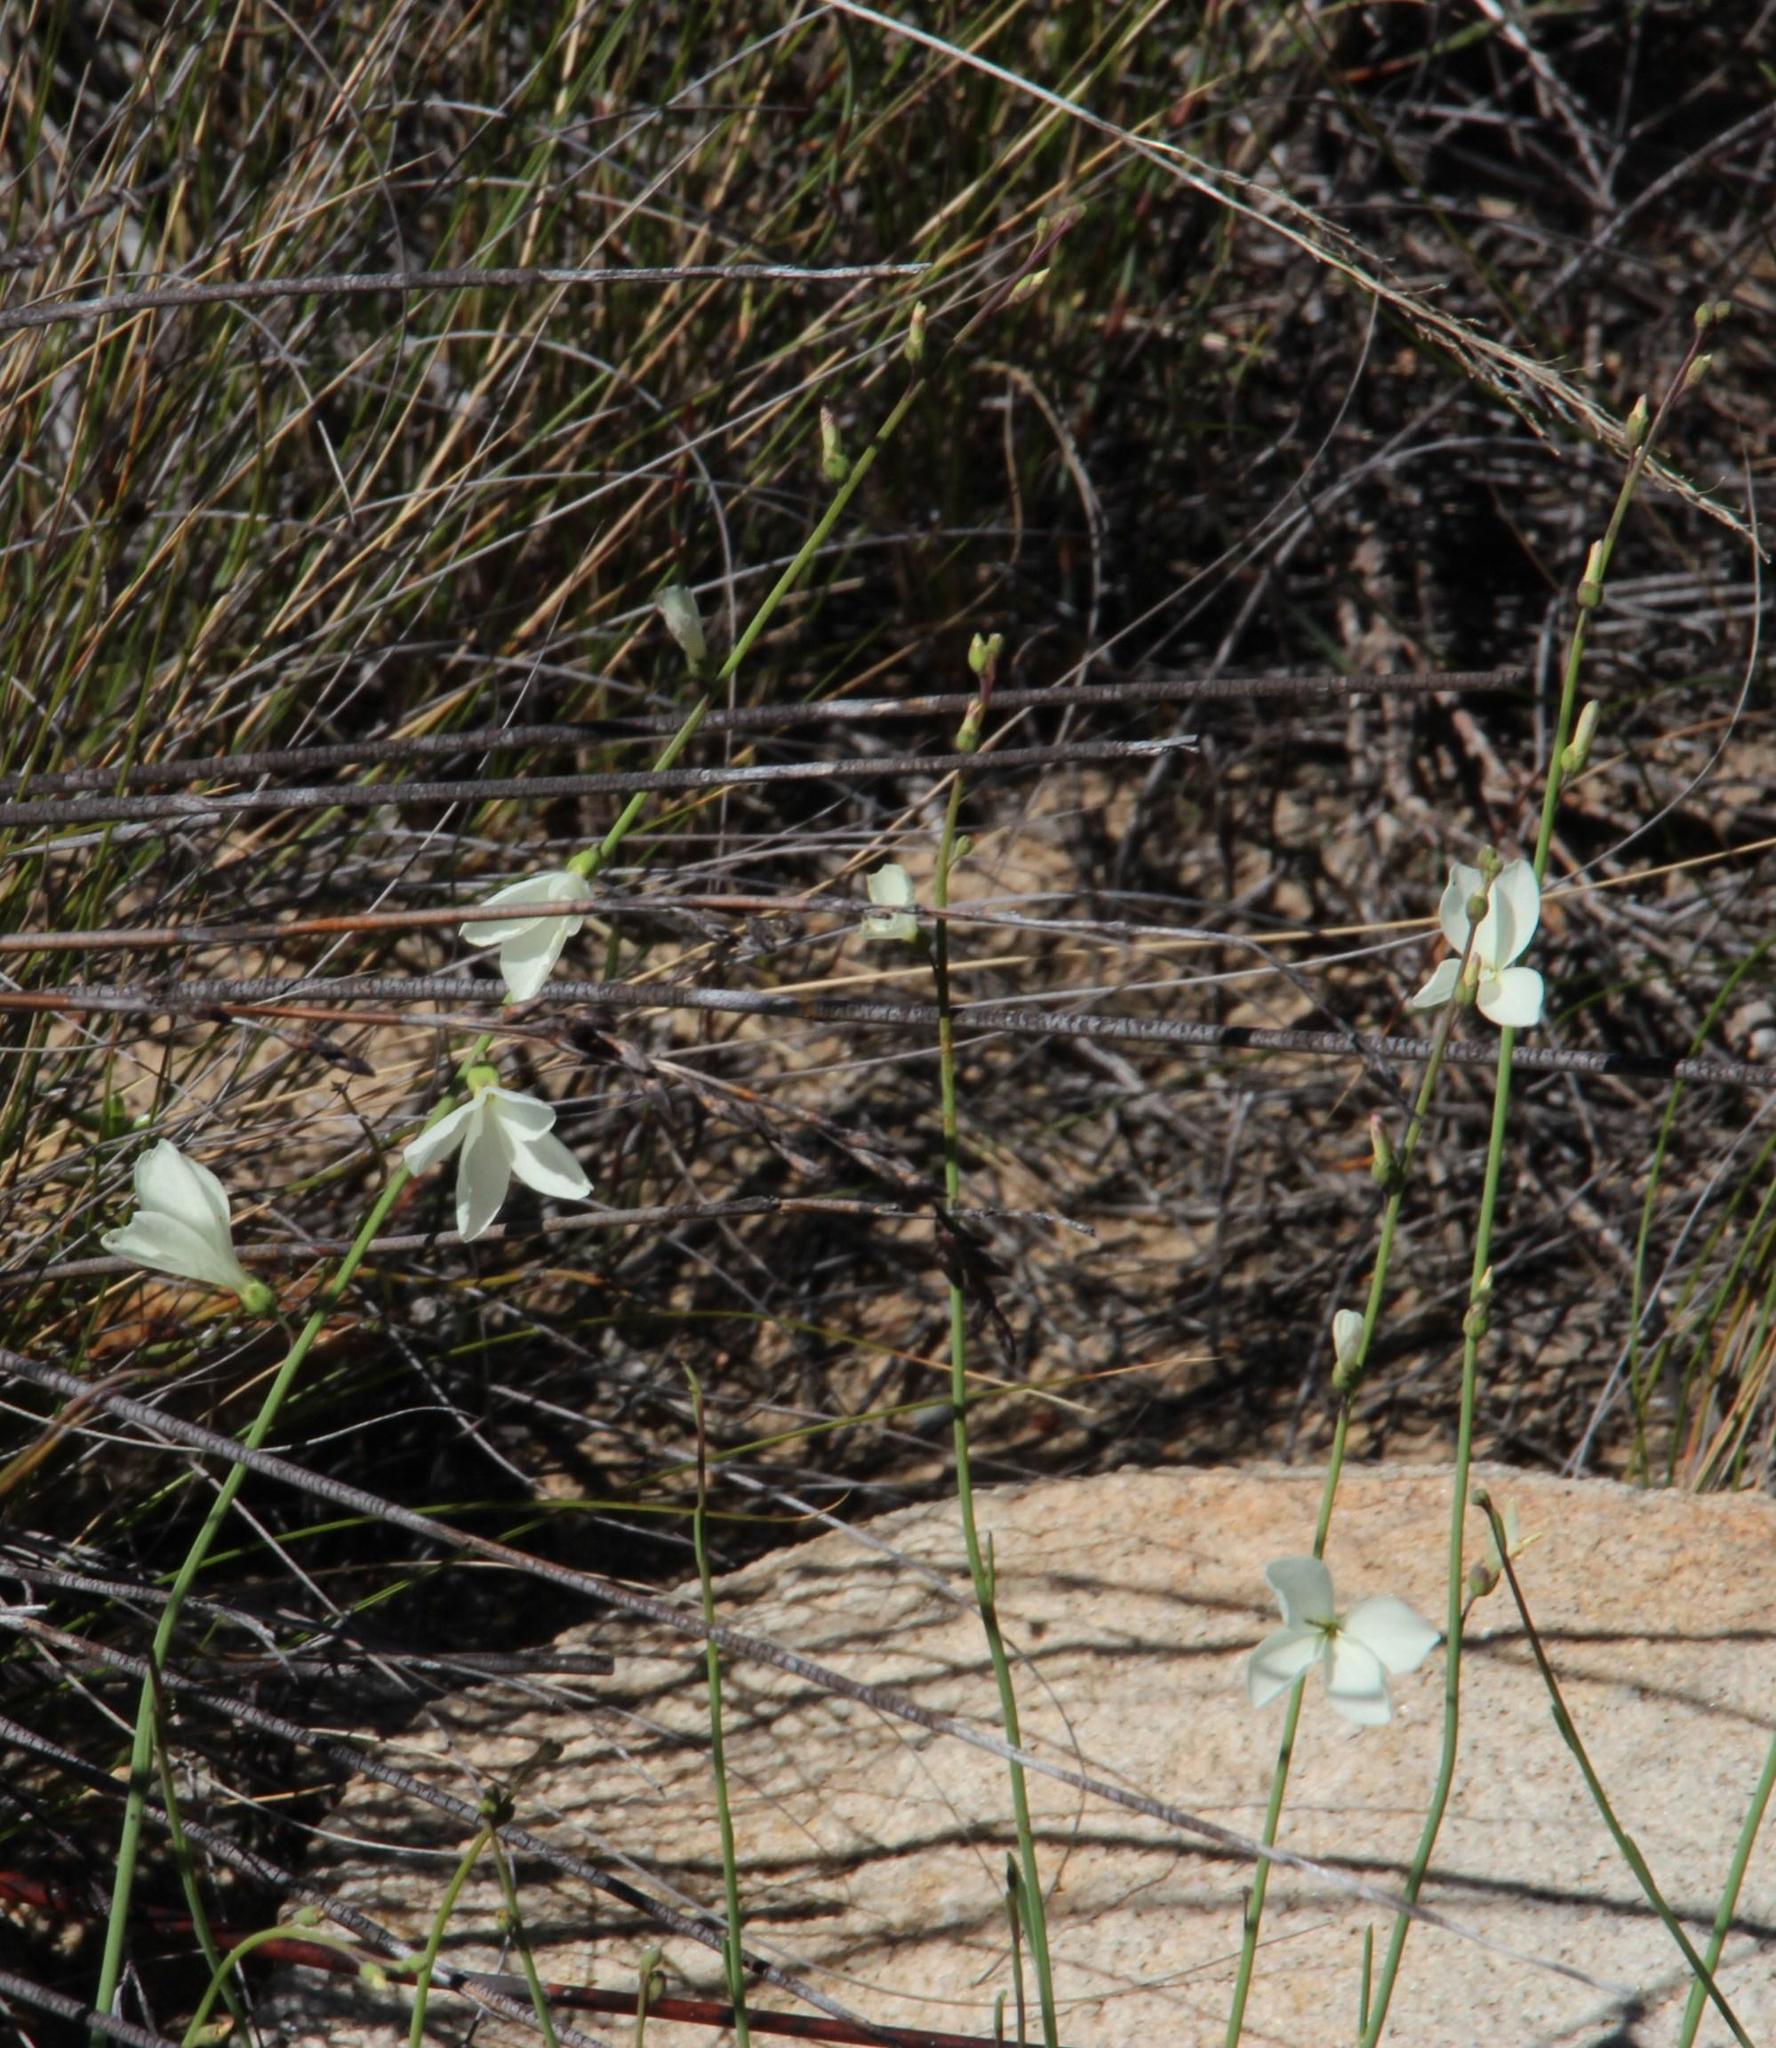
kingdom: Plantae
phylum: Tracheophyta
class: Magnoliopsida
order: Brassicales
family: Brassicaceae
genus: Heliophila
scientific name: Heliophila juncea
